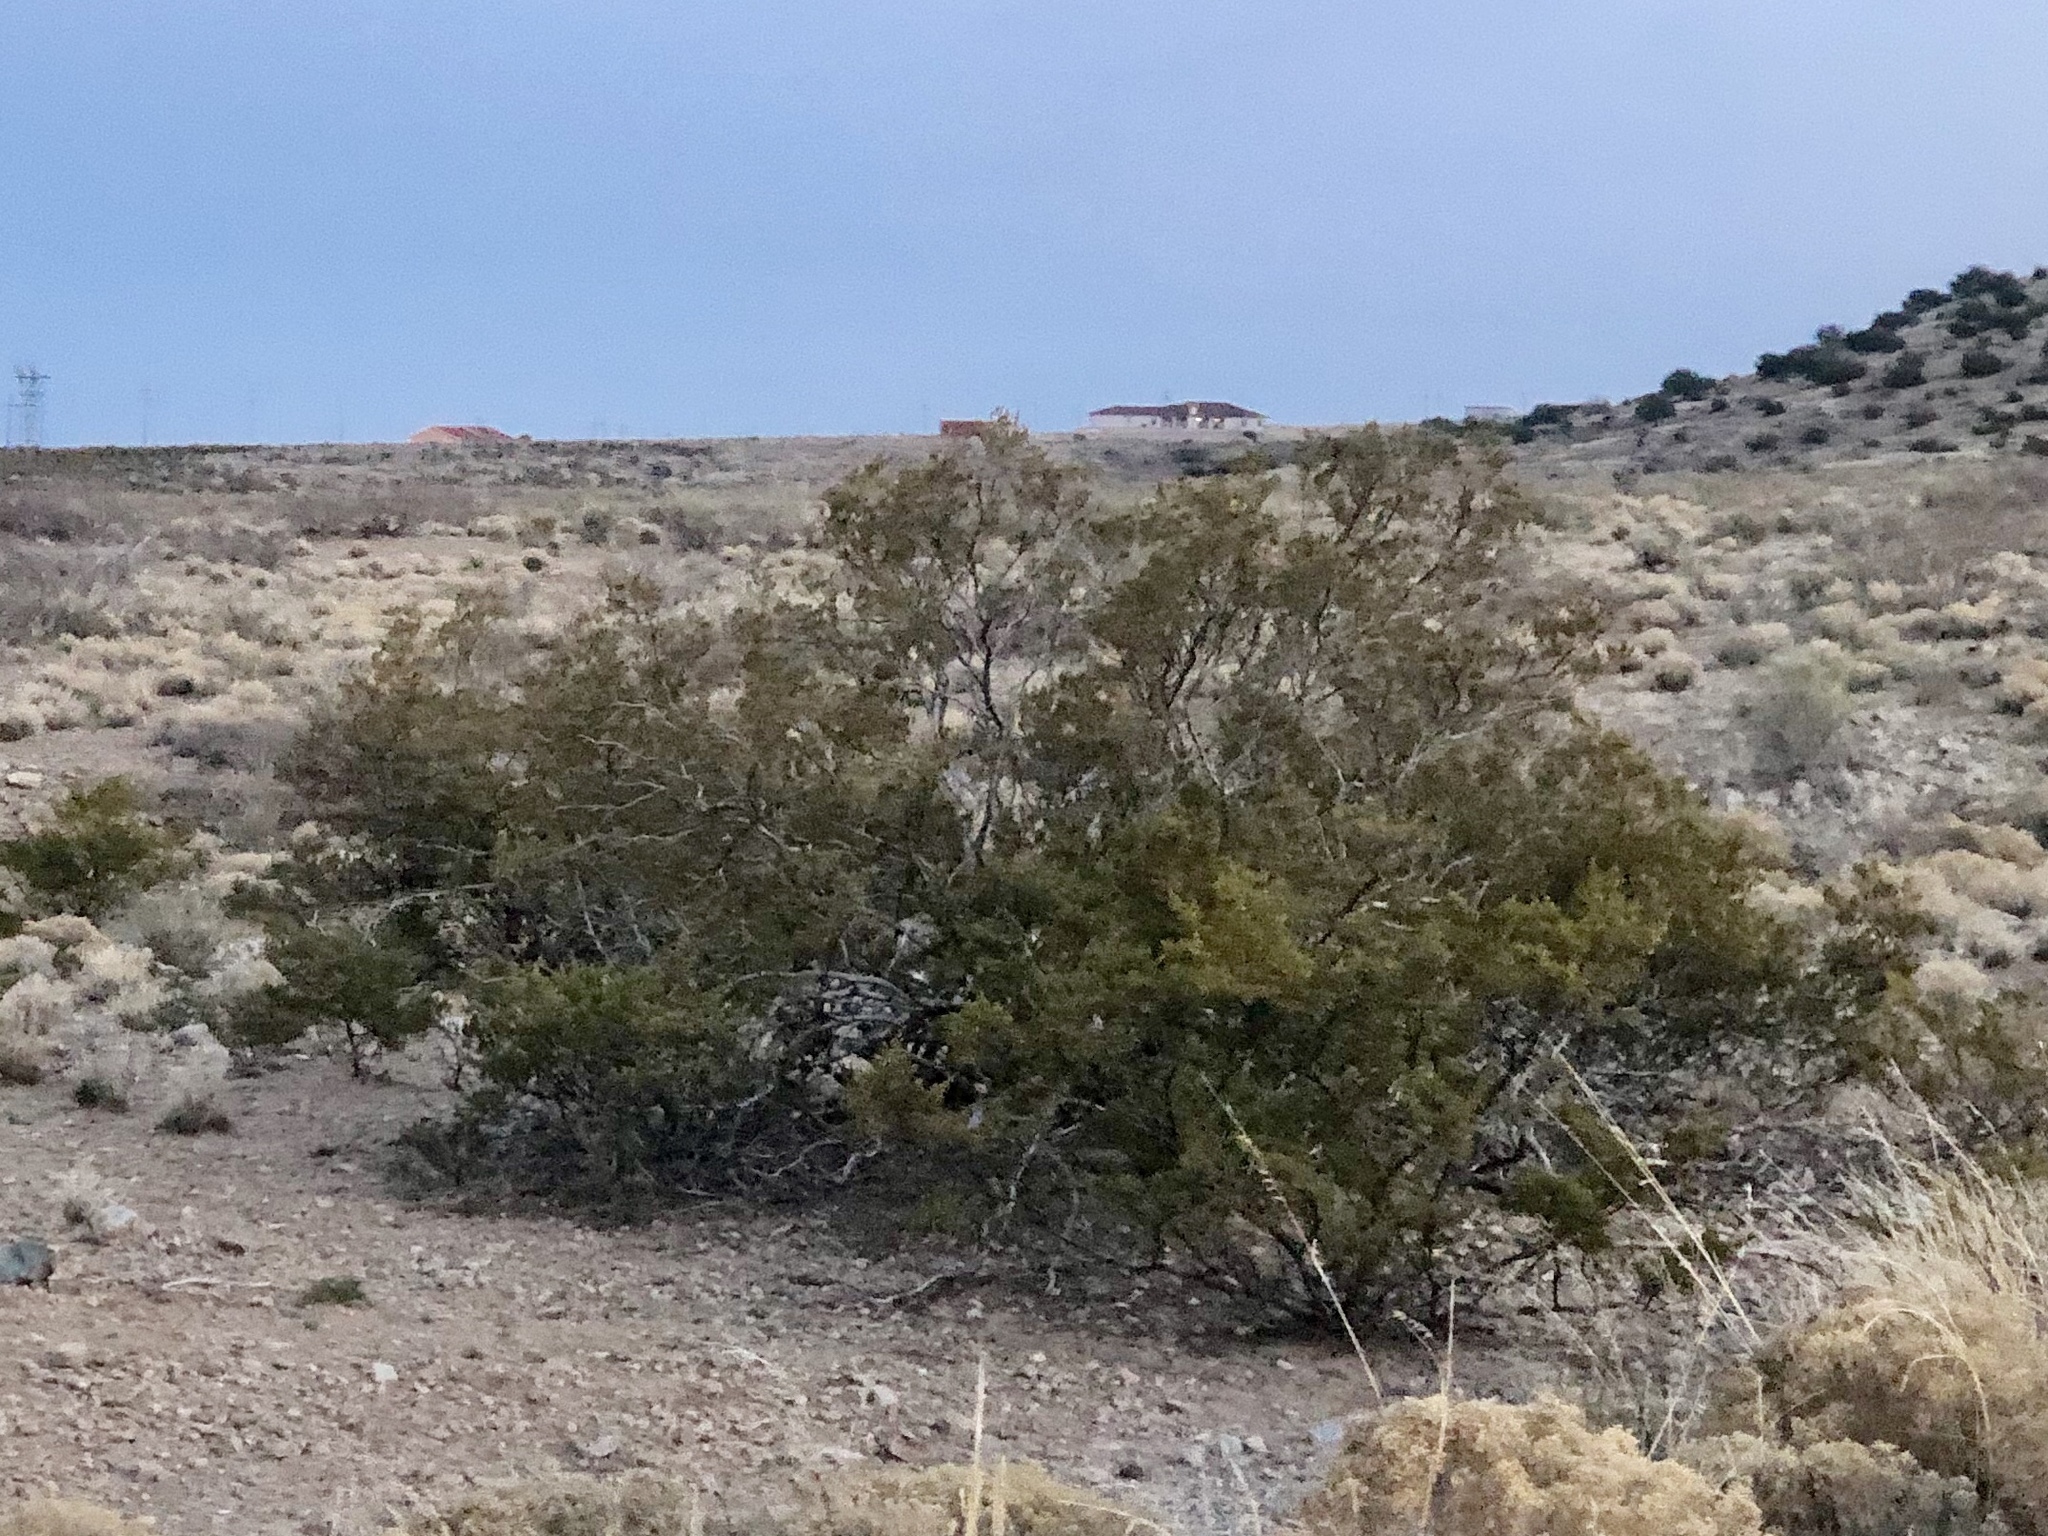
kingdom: Plantae
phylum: Tracheophyta
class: Magnoliopsida
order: Zygophyllales
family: Zygophyllaceae
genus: Larrea
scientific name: Larrea tridentata
